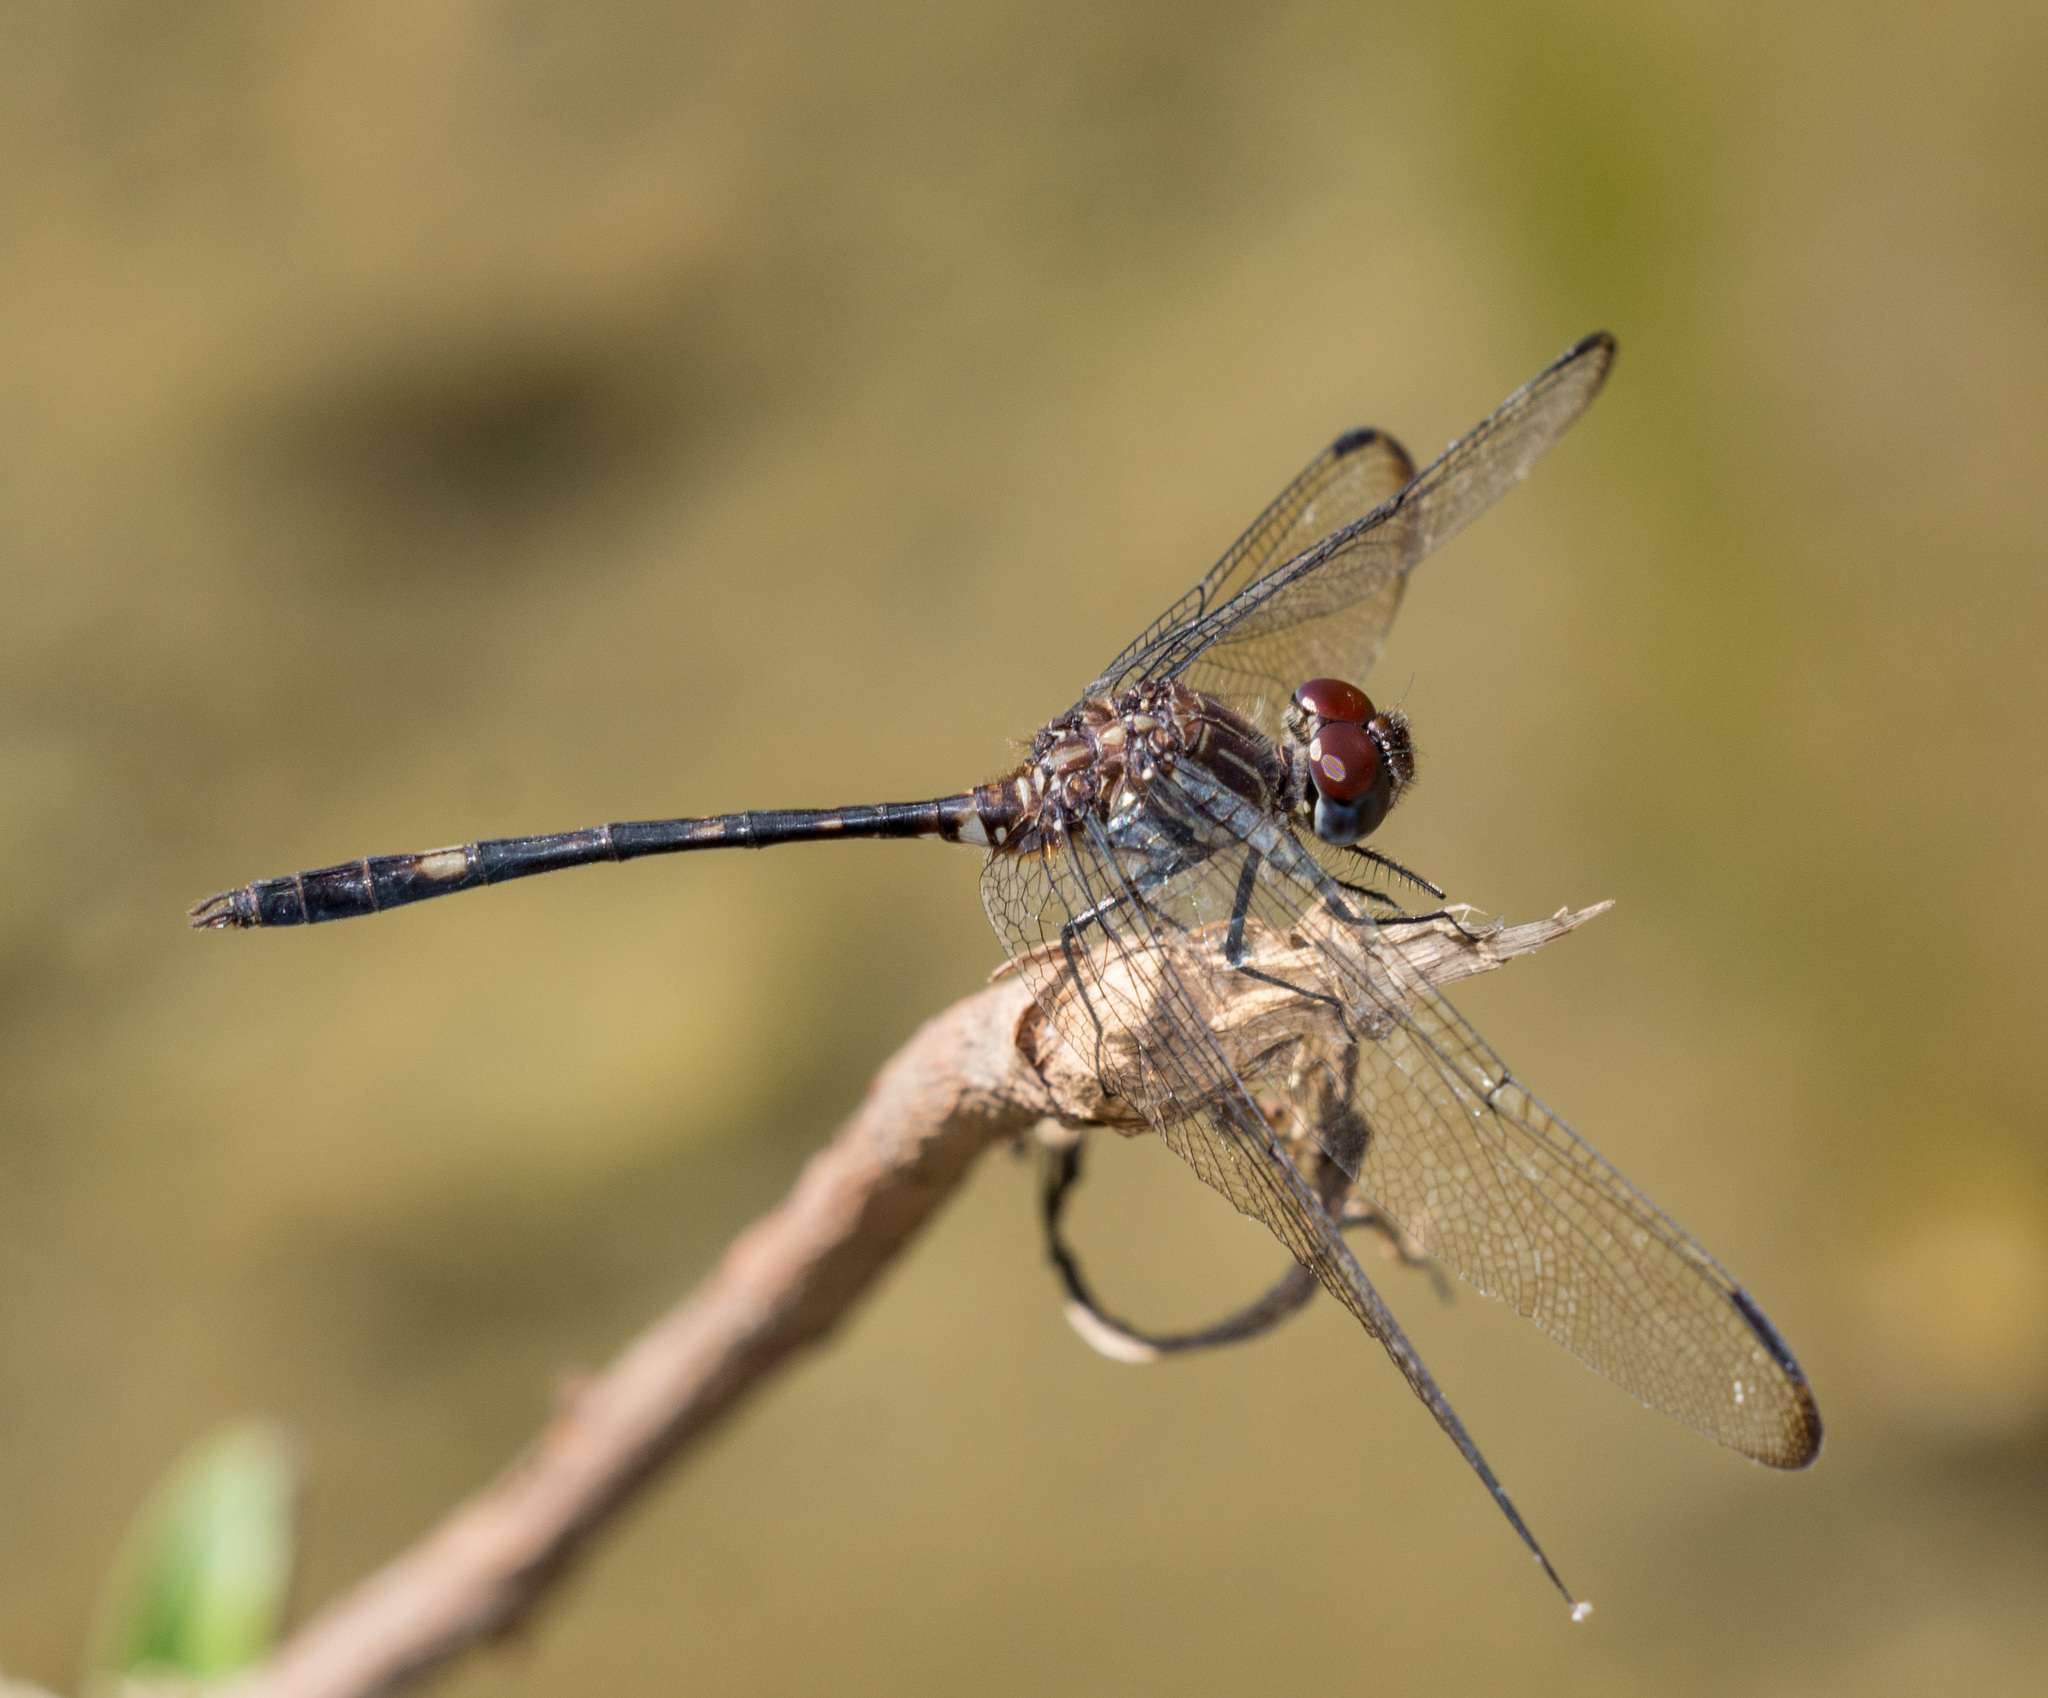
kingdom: Animalia
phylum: Arthropoda
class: Insecta
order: Odonata
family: Libellulidae
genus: Dythemis
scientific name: Dythemis velox
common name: Swift setwing
